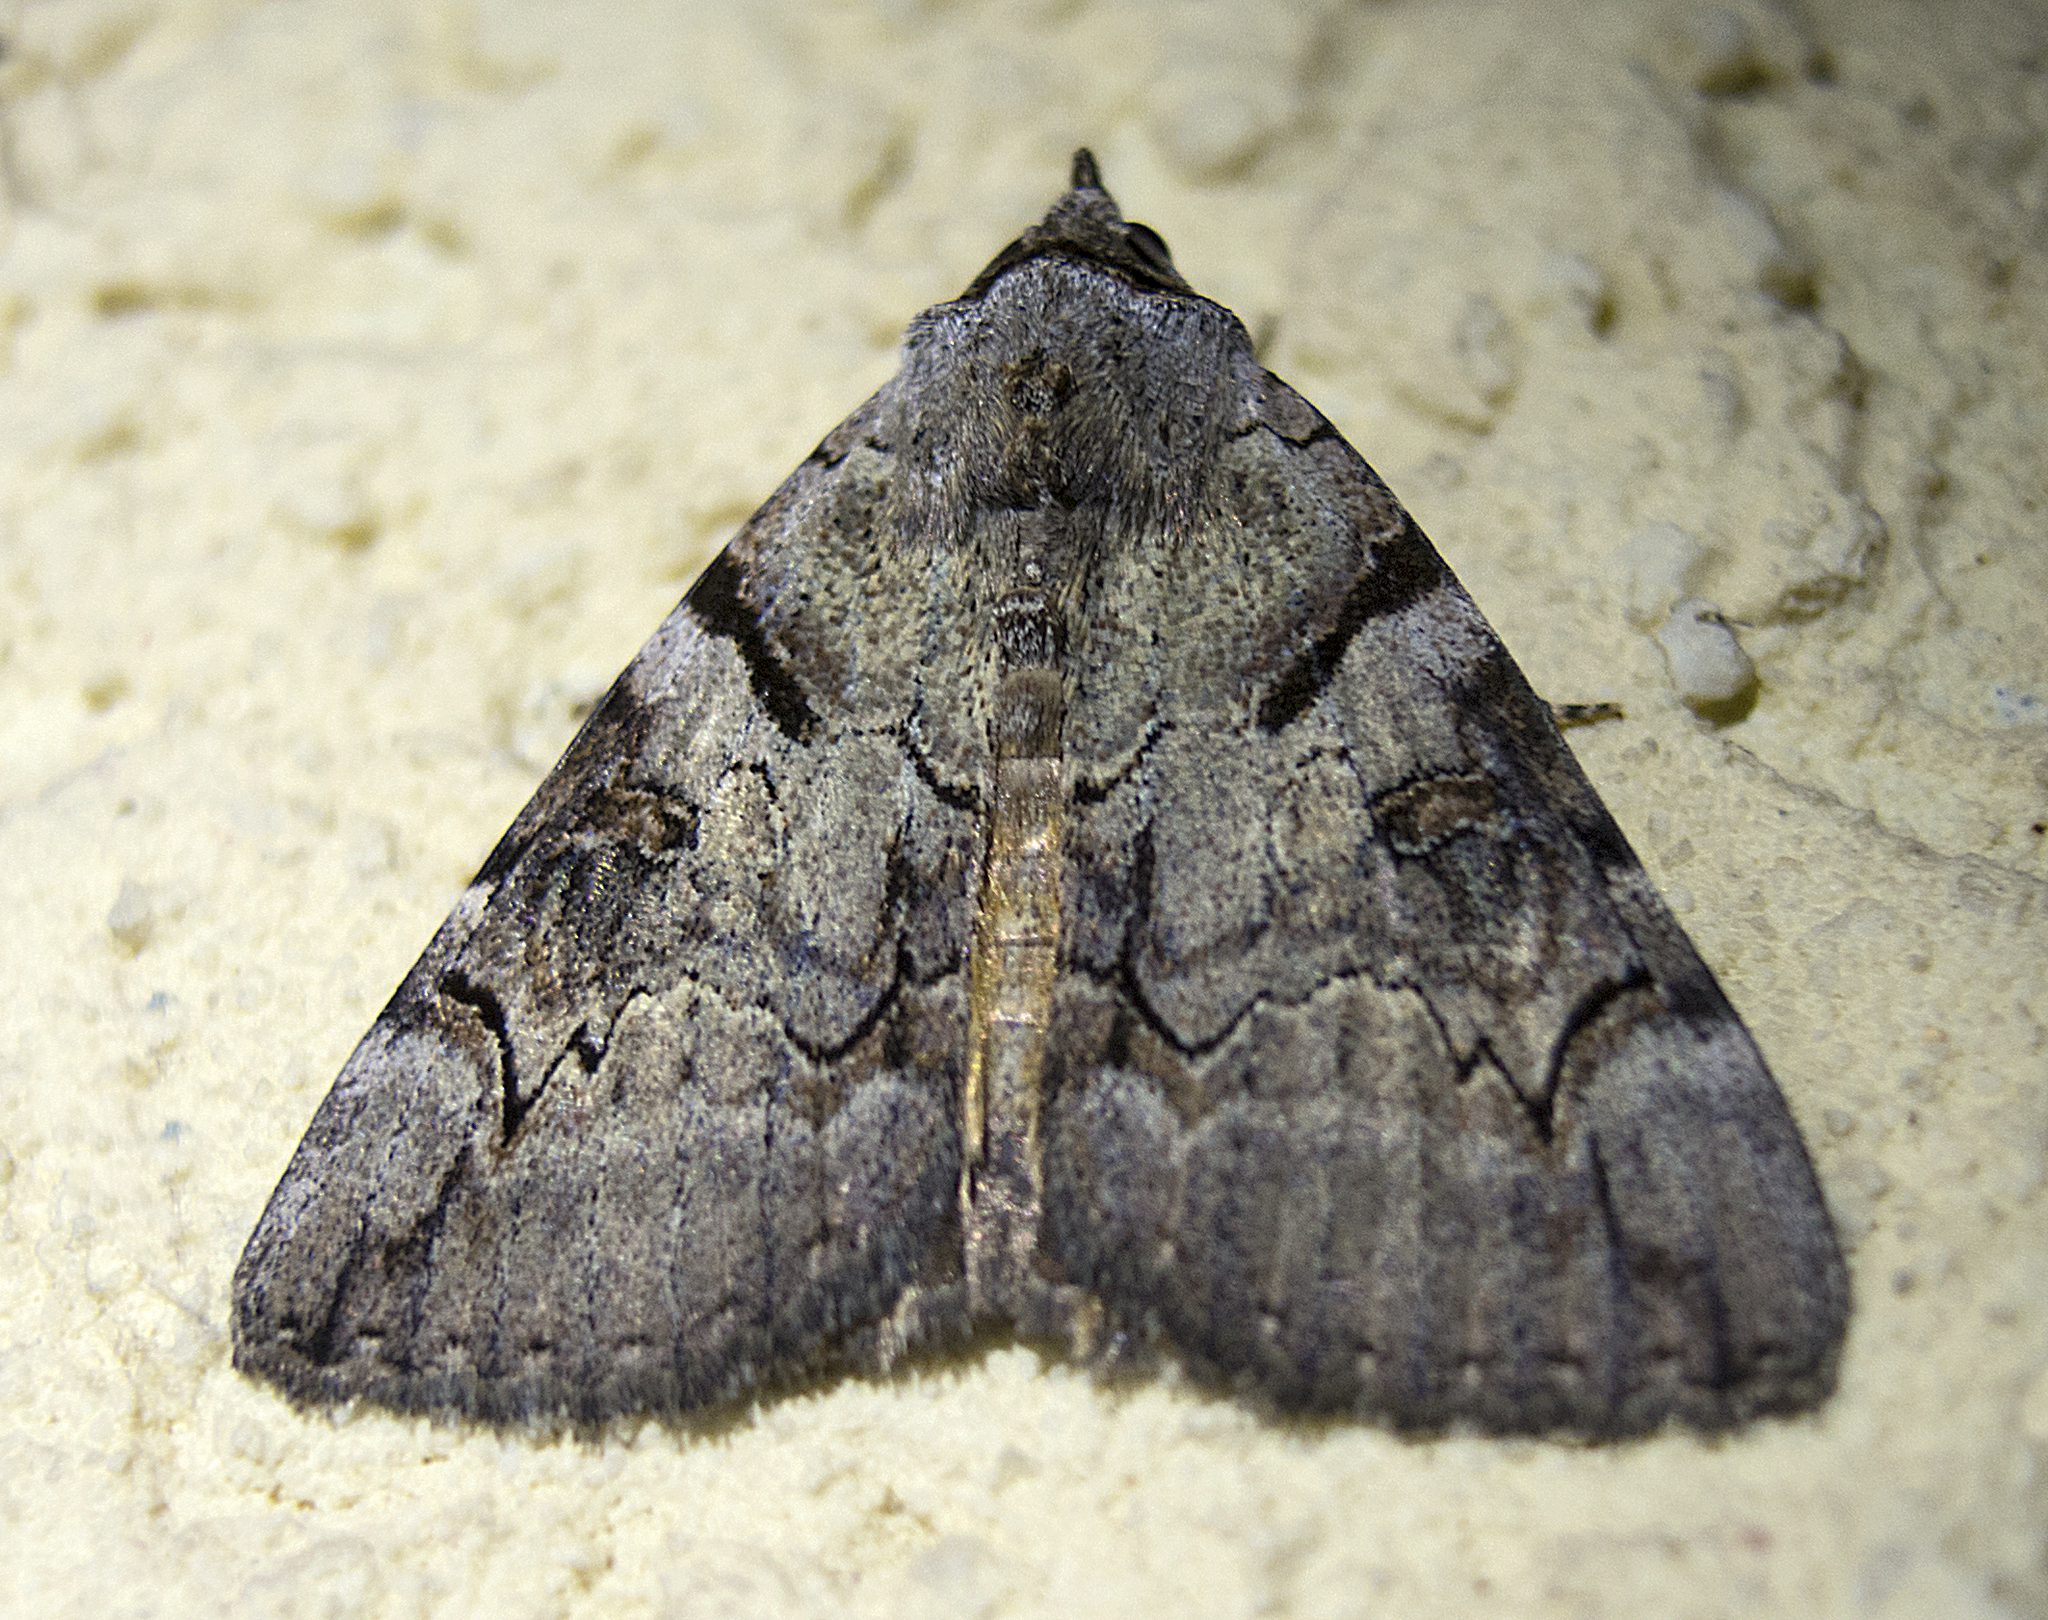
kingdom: Animalia
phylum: Arthropoda
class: Insecta
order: Lepidoptera
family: Erebidae
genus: Catocala
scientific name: Catocala hymenaea
